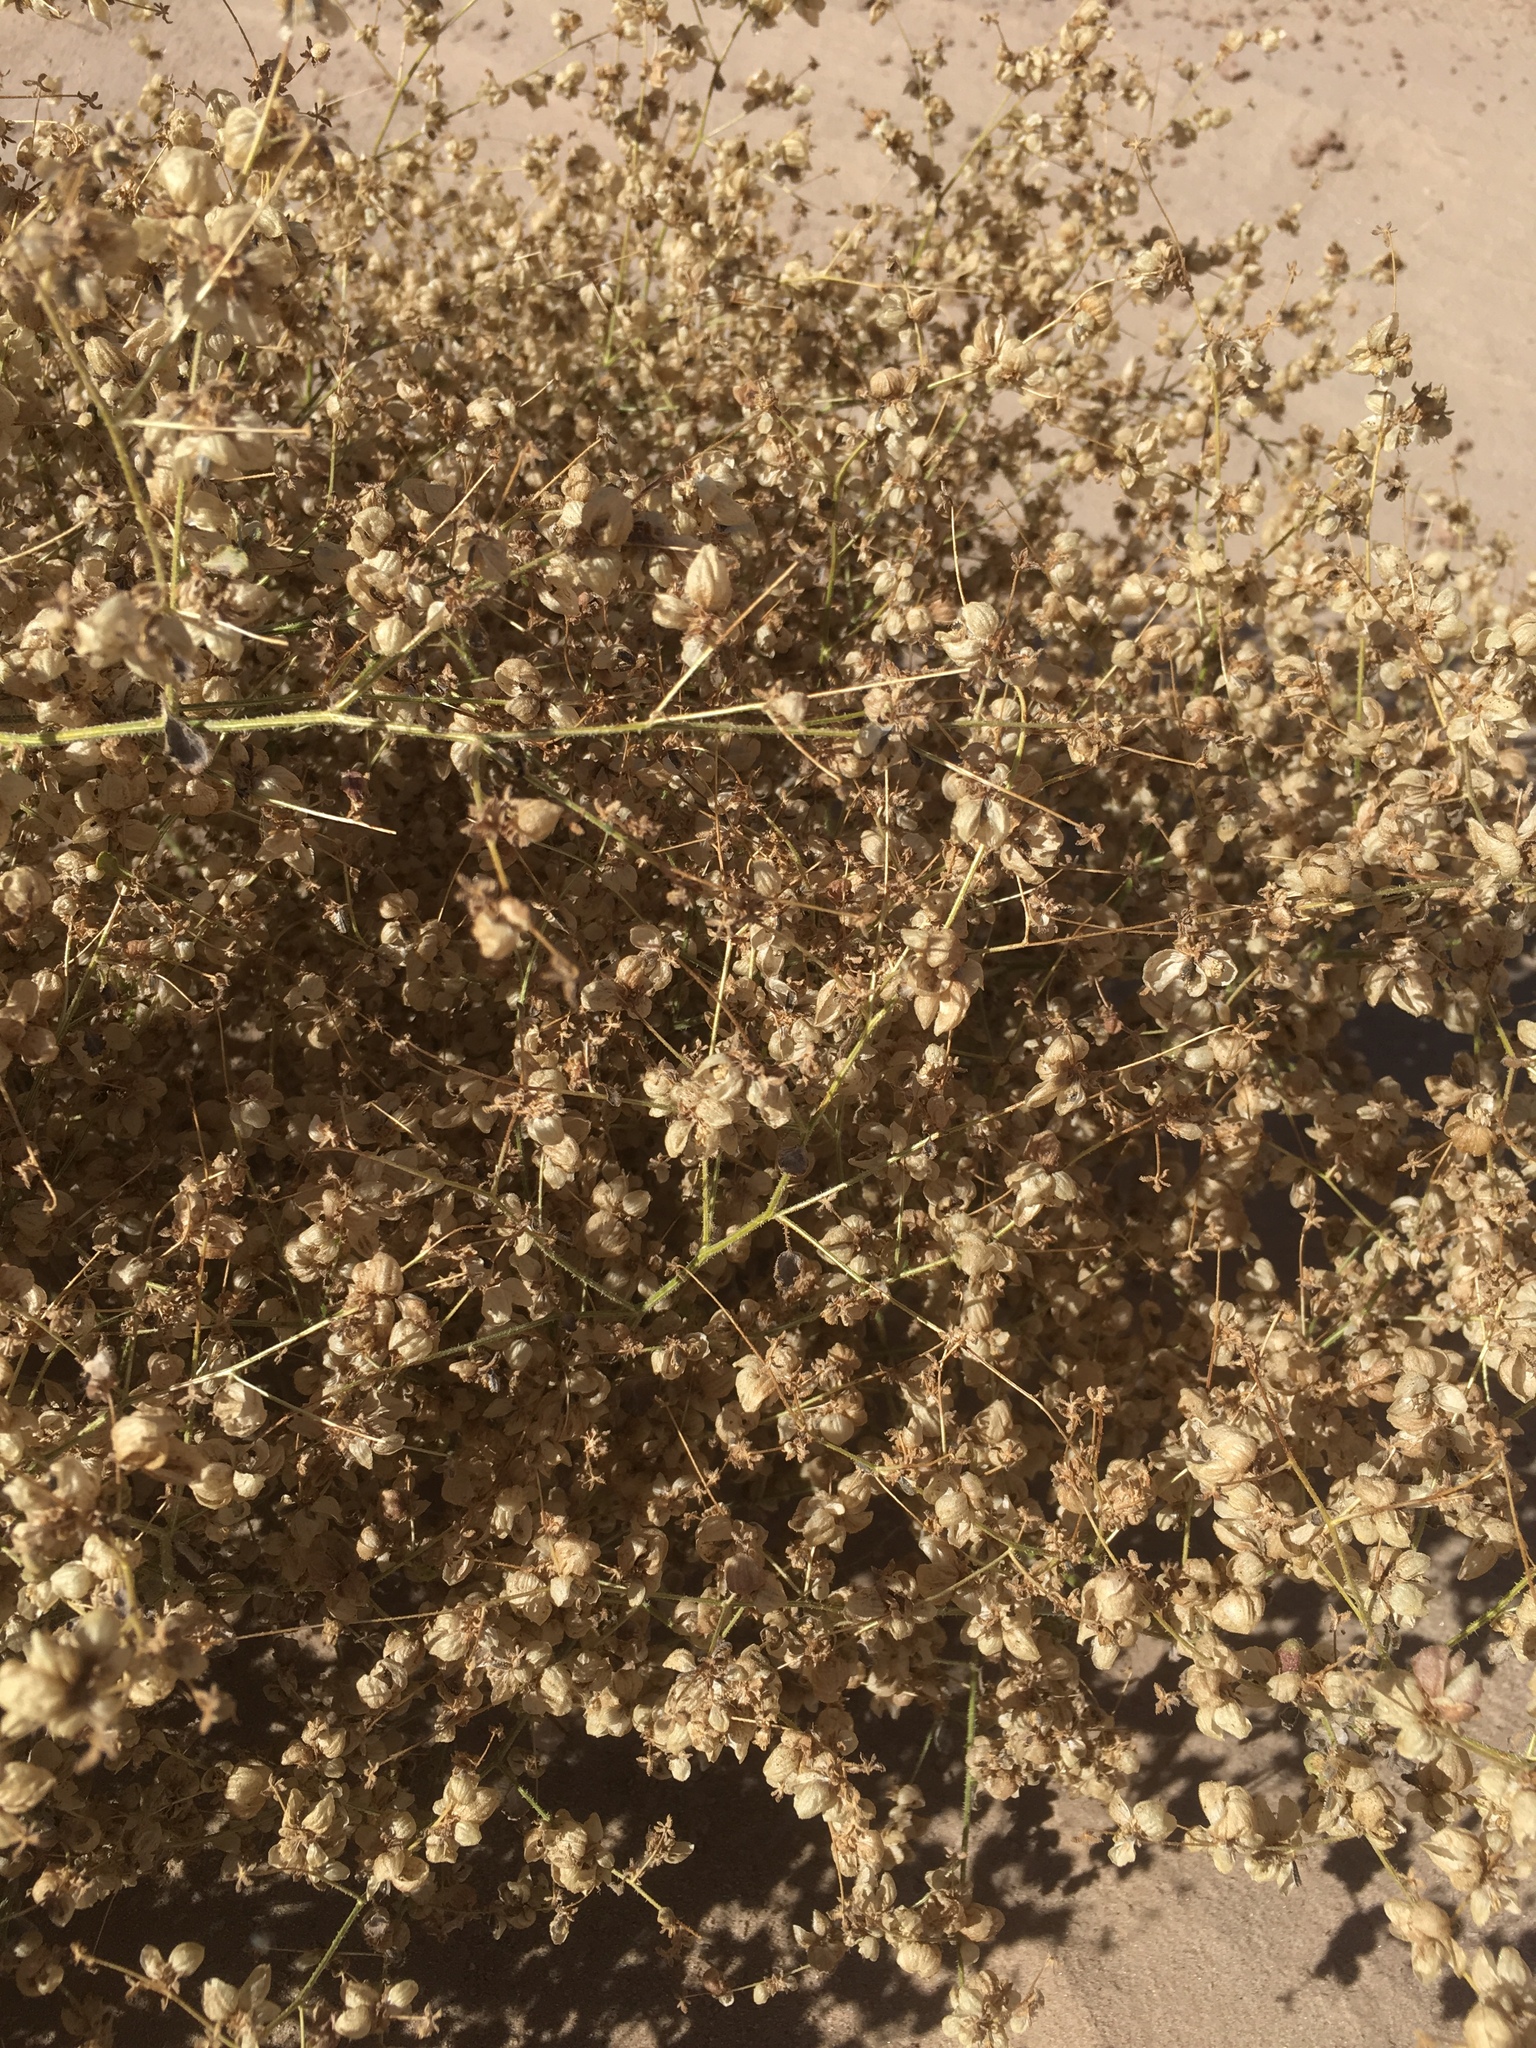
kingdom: Plantae
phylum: Tracheophyta
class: Magnoliopsida
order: Asterales
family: Asteraceae
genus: Dicoria
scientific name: Dicoria canescens
